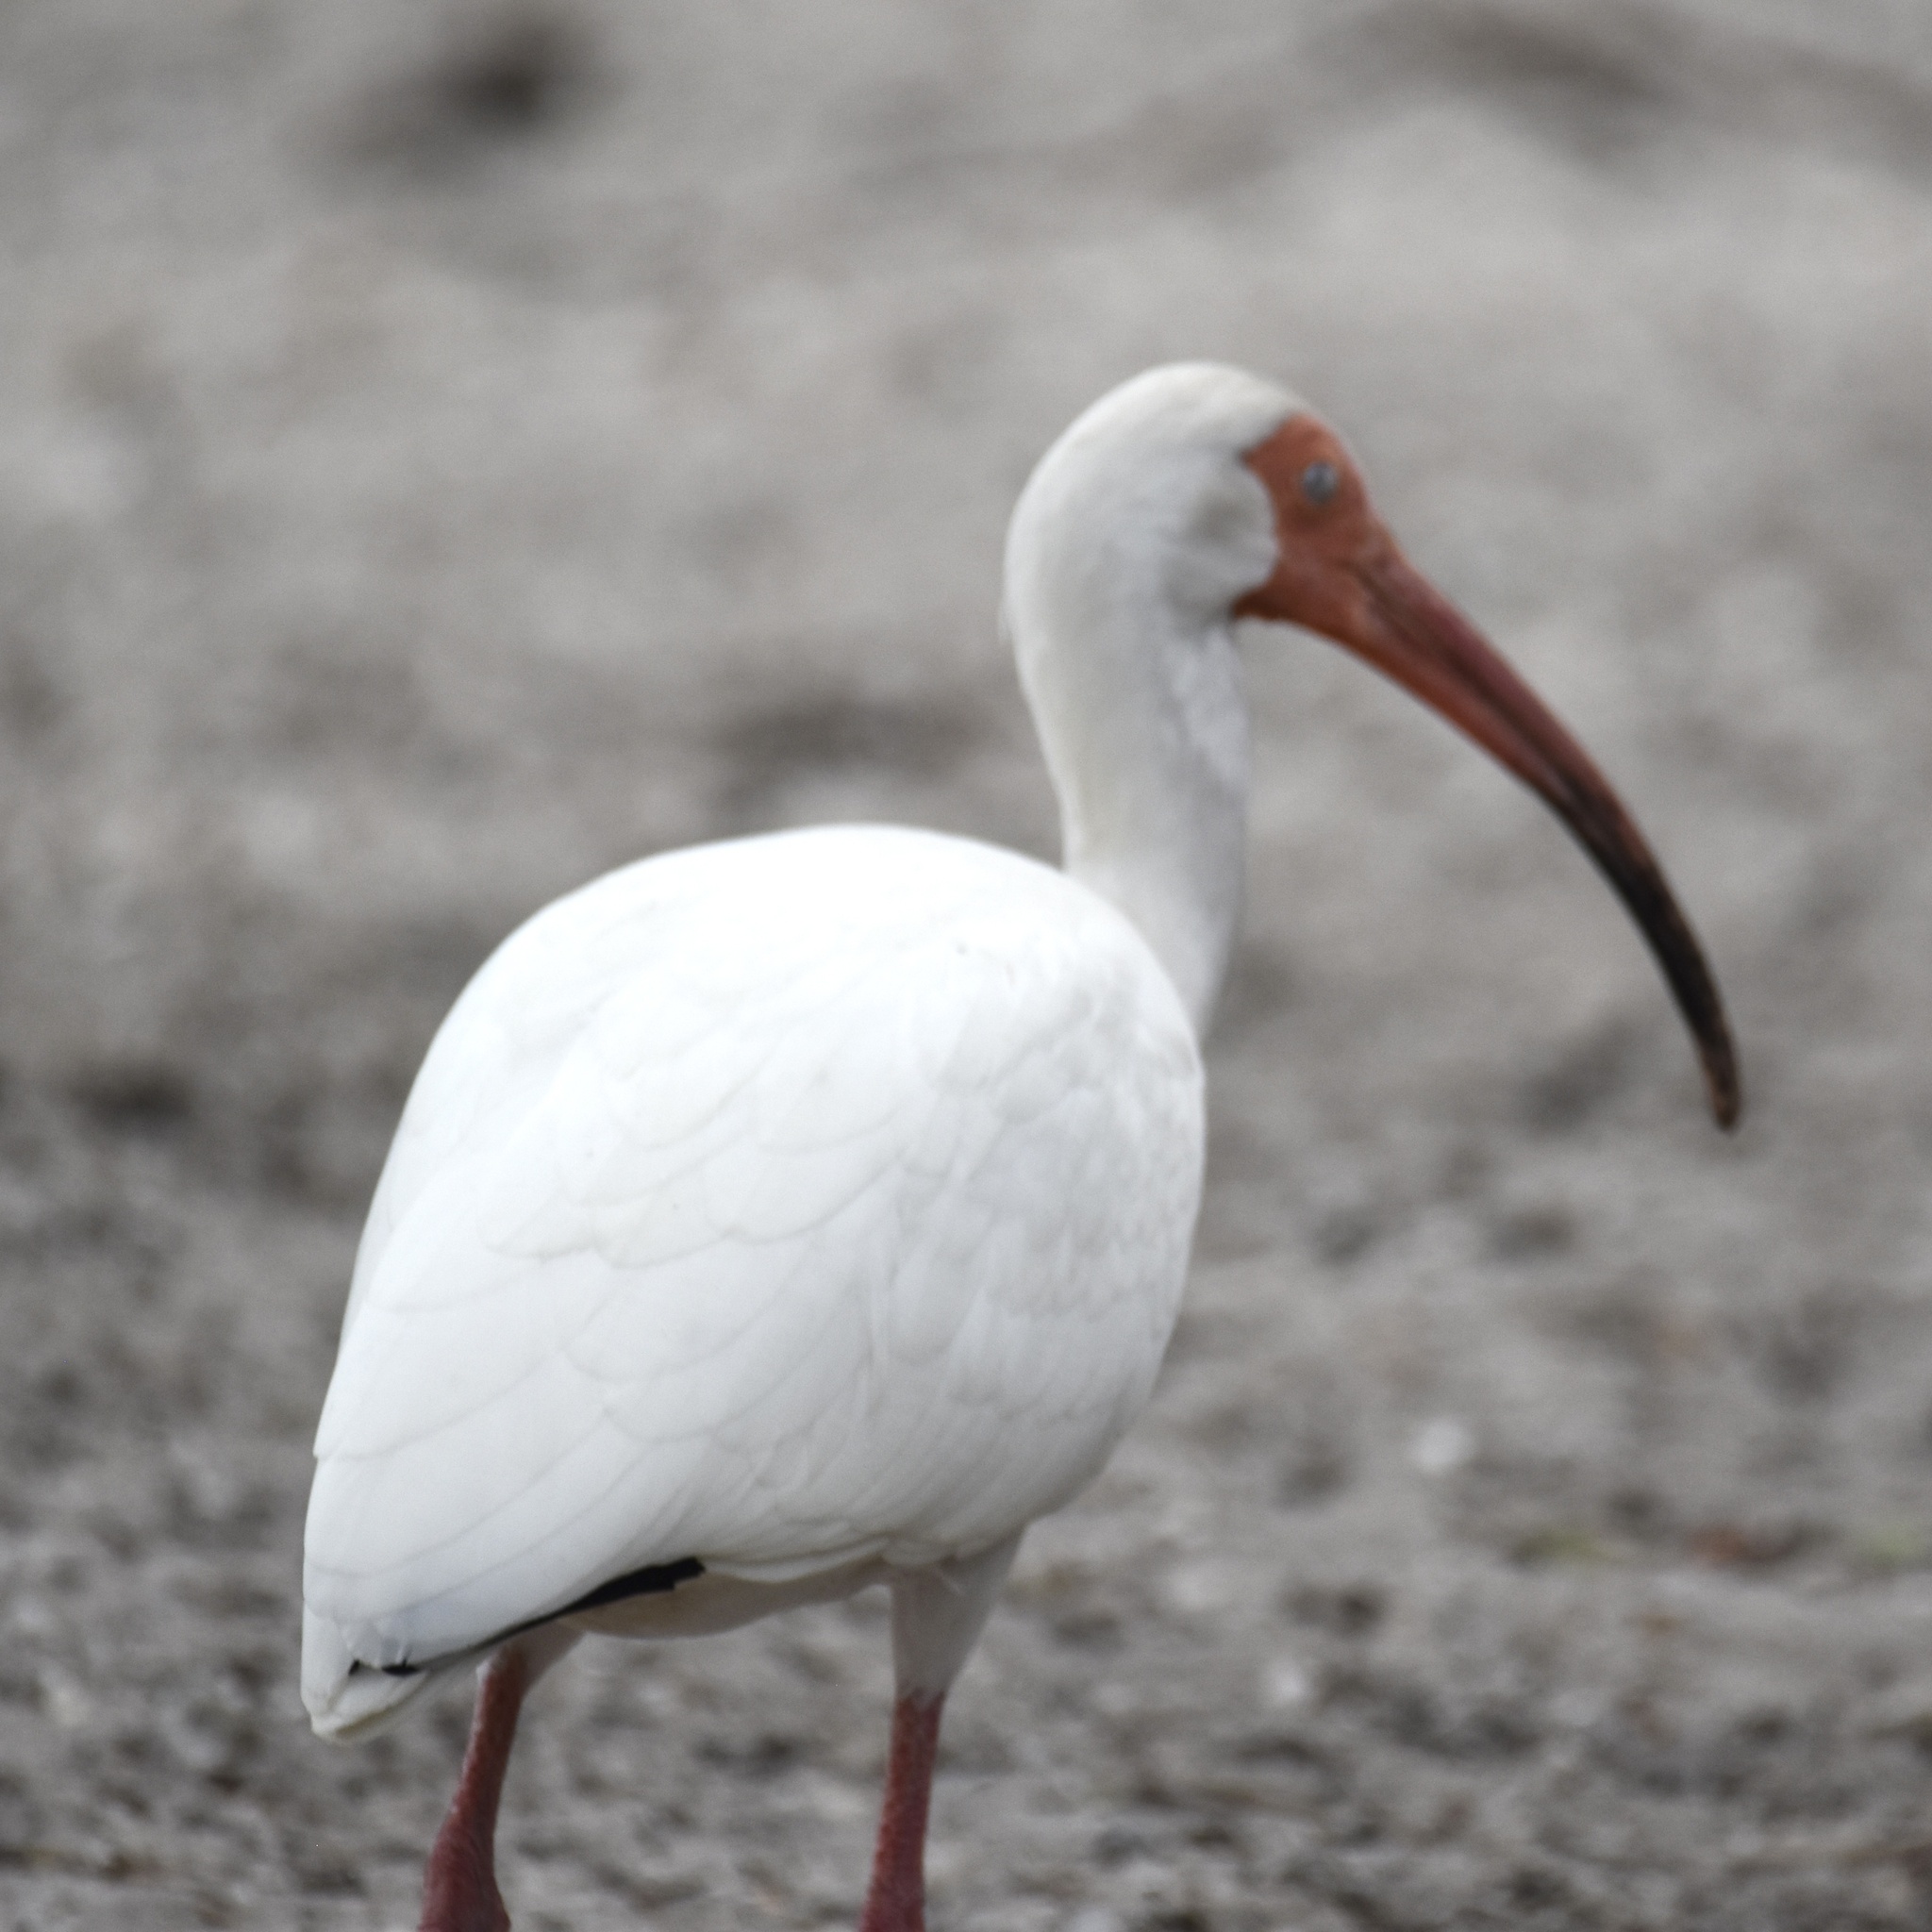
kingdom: Animalia
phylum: Chordata
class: Aves
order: Pelecaniformes
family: Threskiornithidae
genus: Eudocimus
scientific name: Eudocimus albus
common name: White ibis
